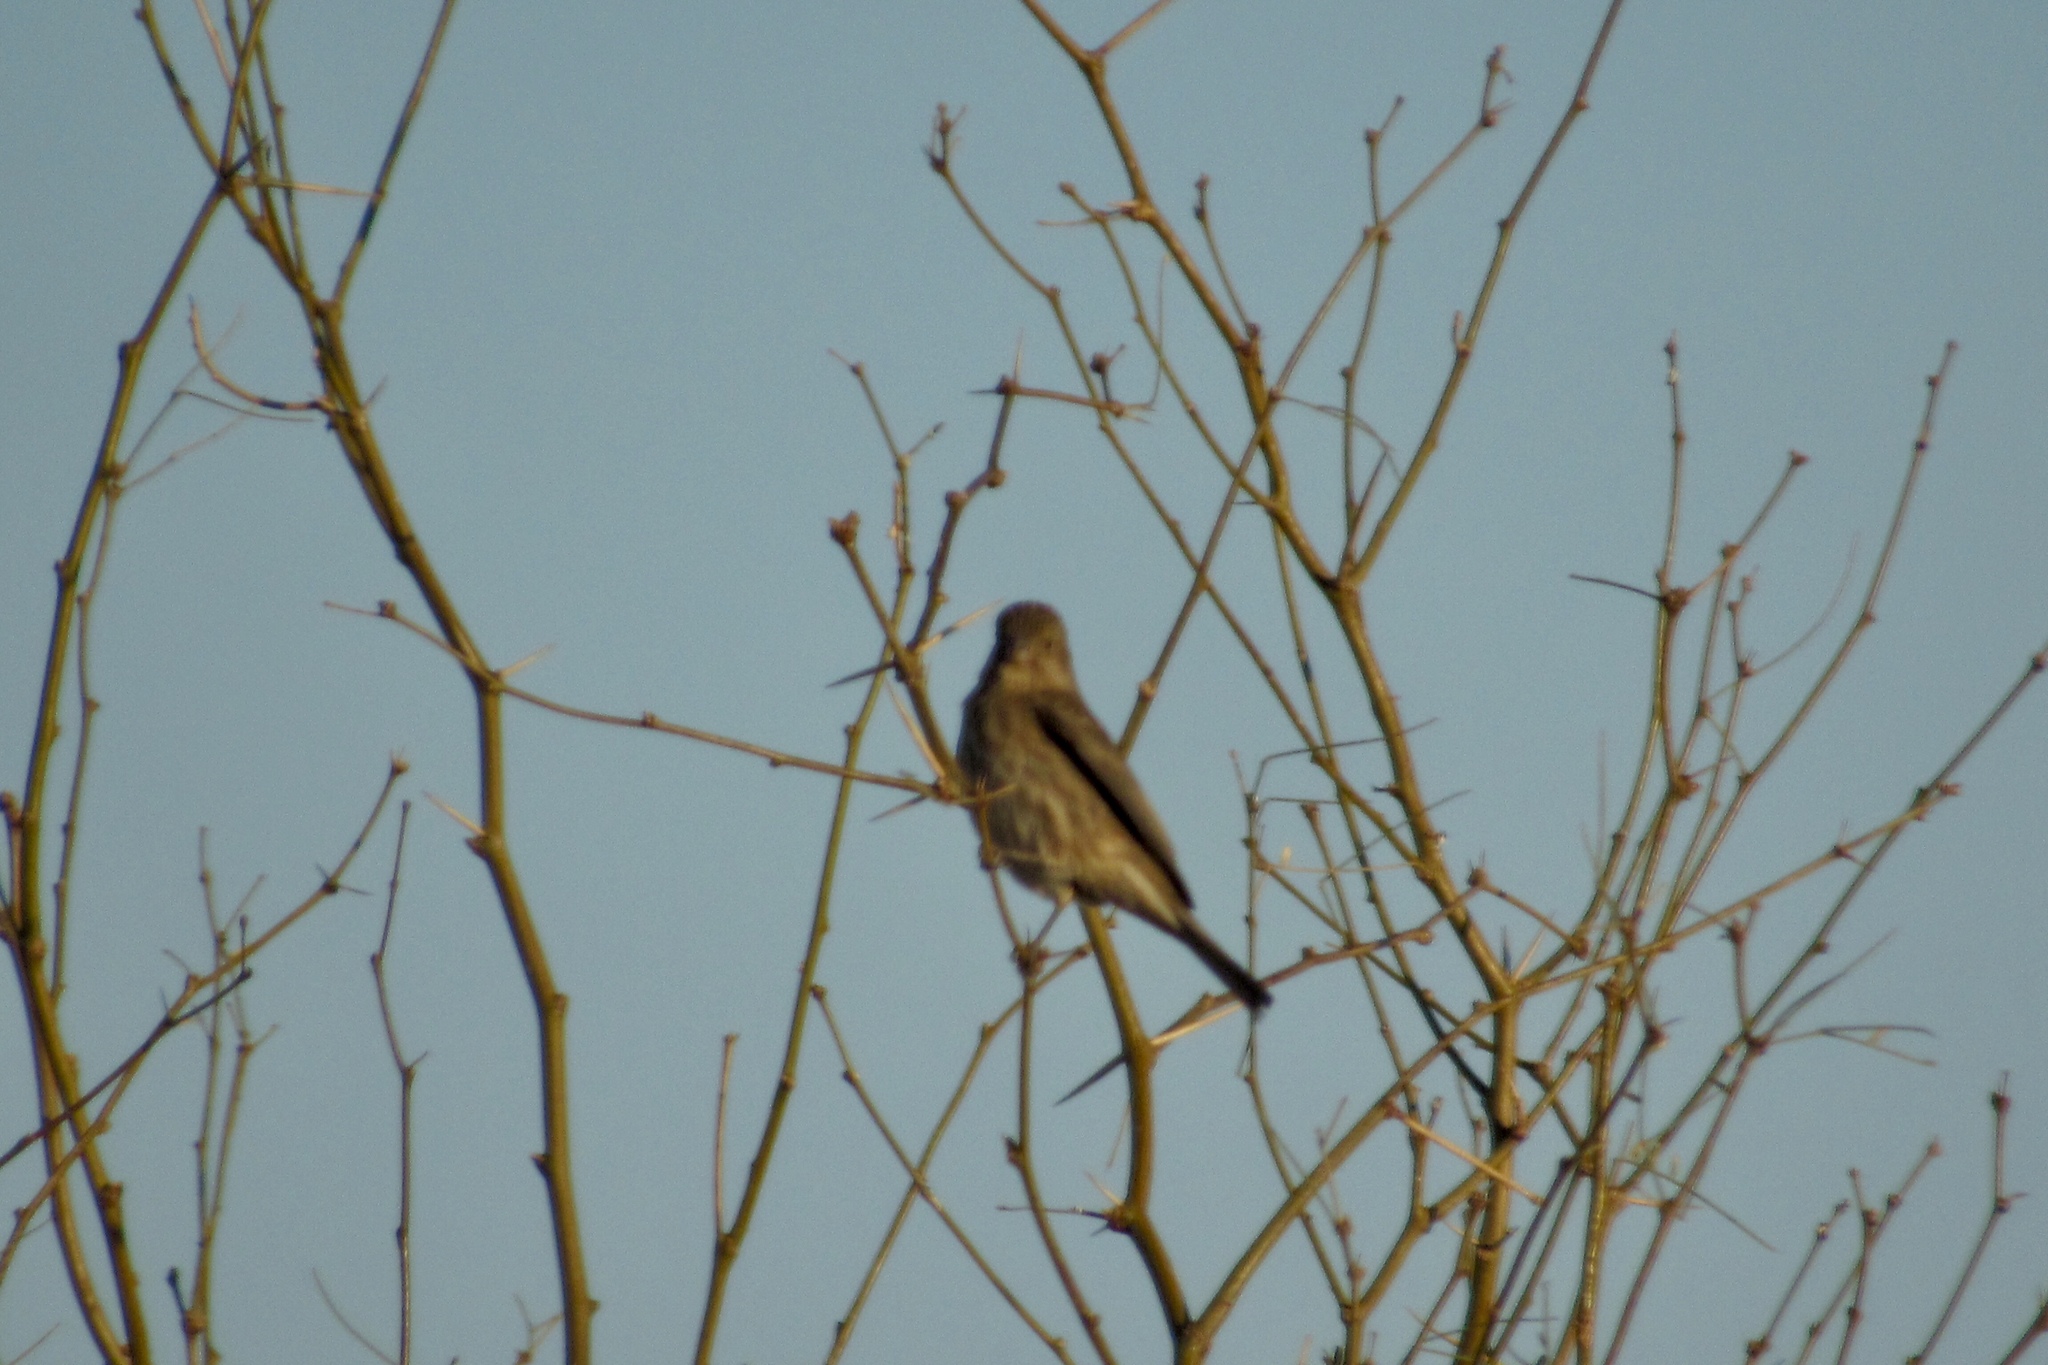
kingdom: Animalia
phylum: Chordata
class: Aves
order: Passeriformes
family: Fringillidae
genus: Haemorhous
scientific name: Haemorhous mexicanus
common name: House finch
